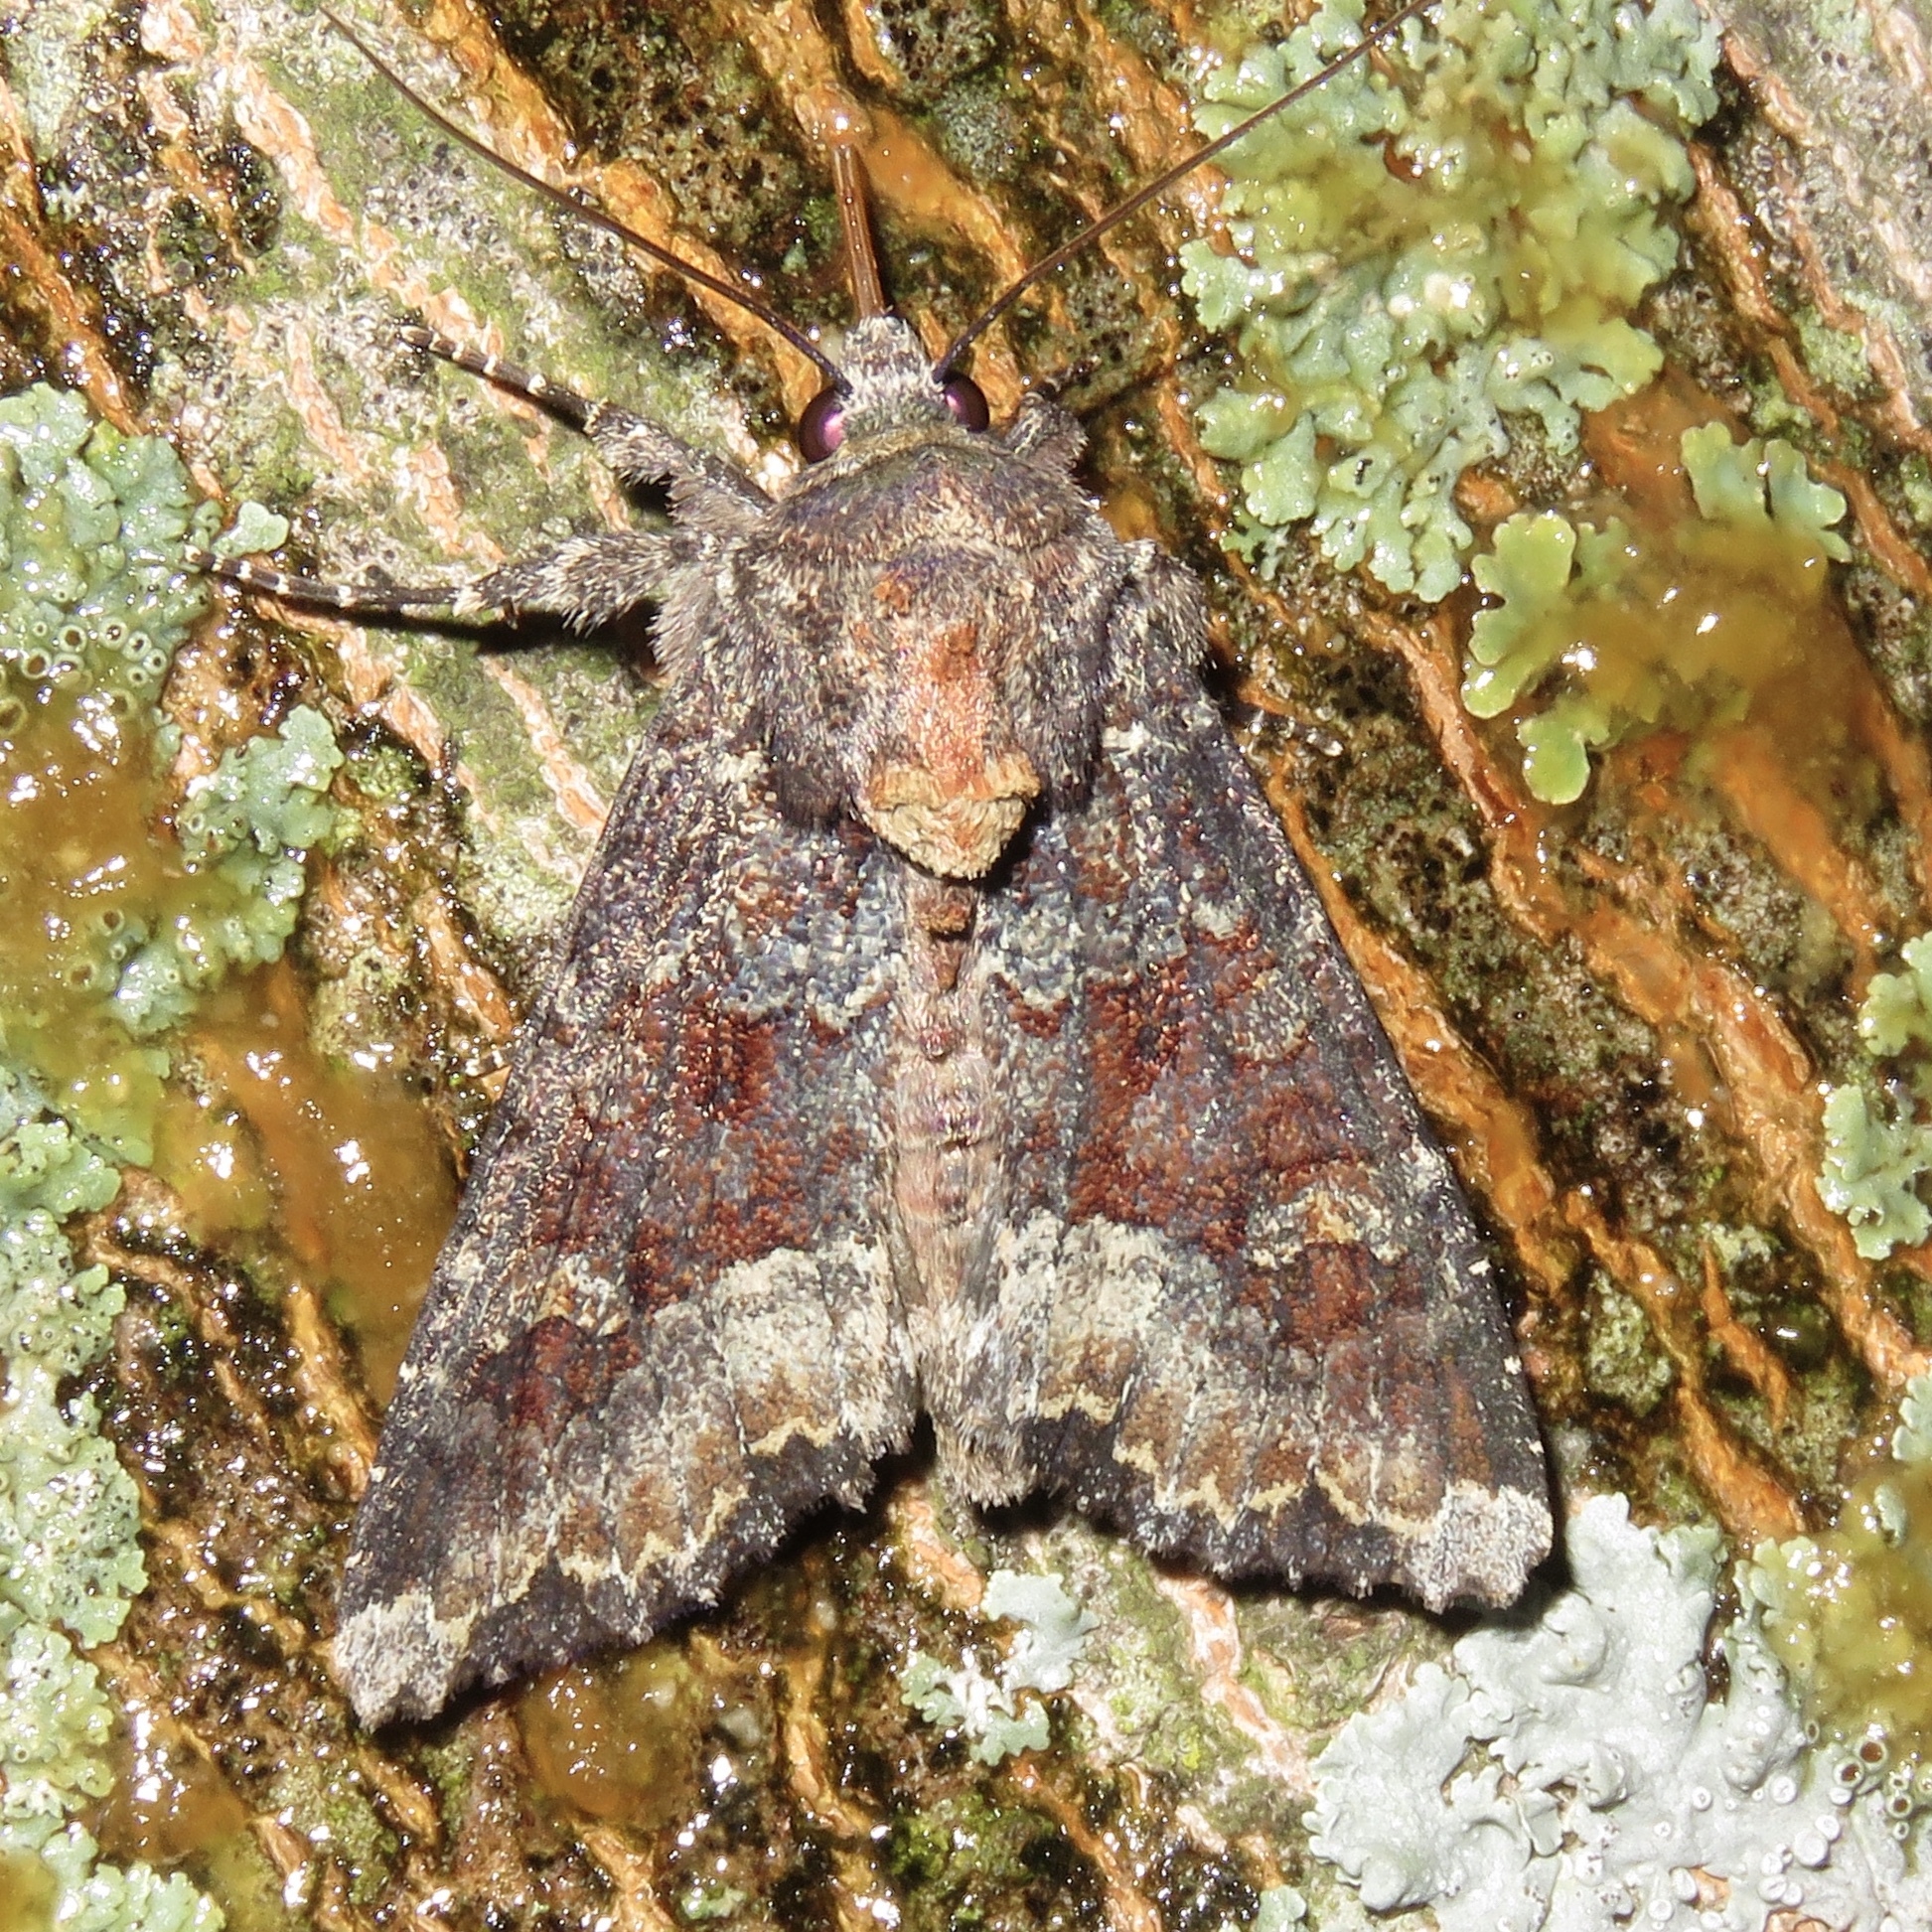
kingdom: Animalia
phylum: Arthropoda
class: Insecta
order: Lepidoptera
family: Noctuidae
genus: Apamea
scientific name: Apamea amputatrix
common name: Yellow-headed cutworm moth
